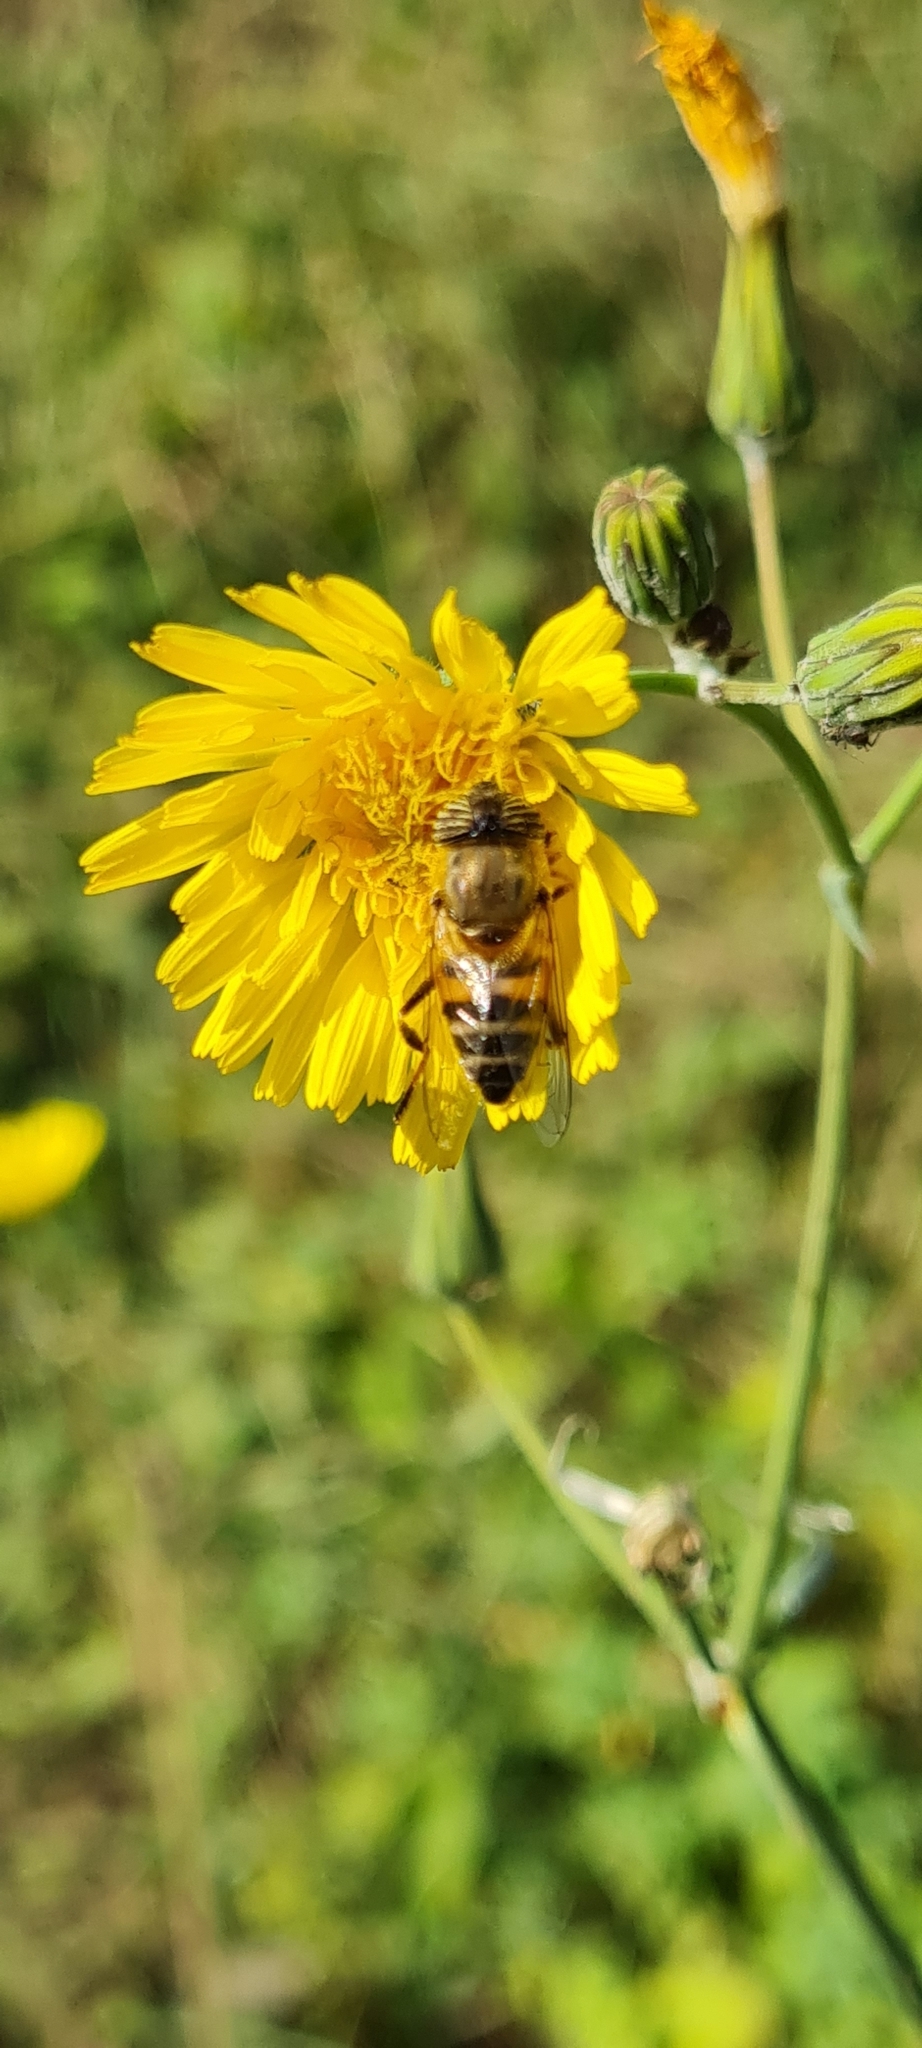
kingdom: Animalia
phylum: Arthropoda
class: Insecta
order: Diptera
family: Syrphidae
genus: Eristalinus
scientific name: Eristalinus taeniops
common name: Syrphid fly
